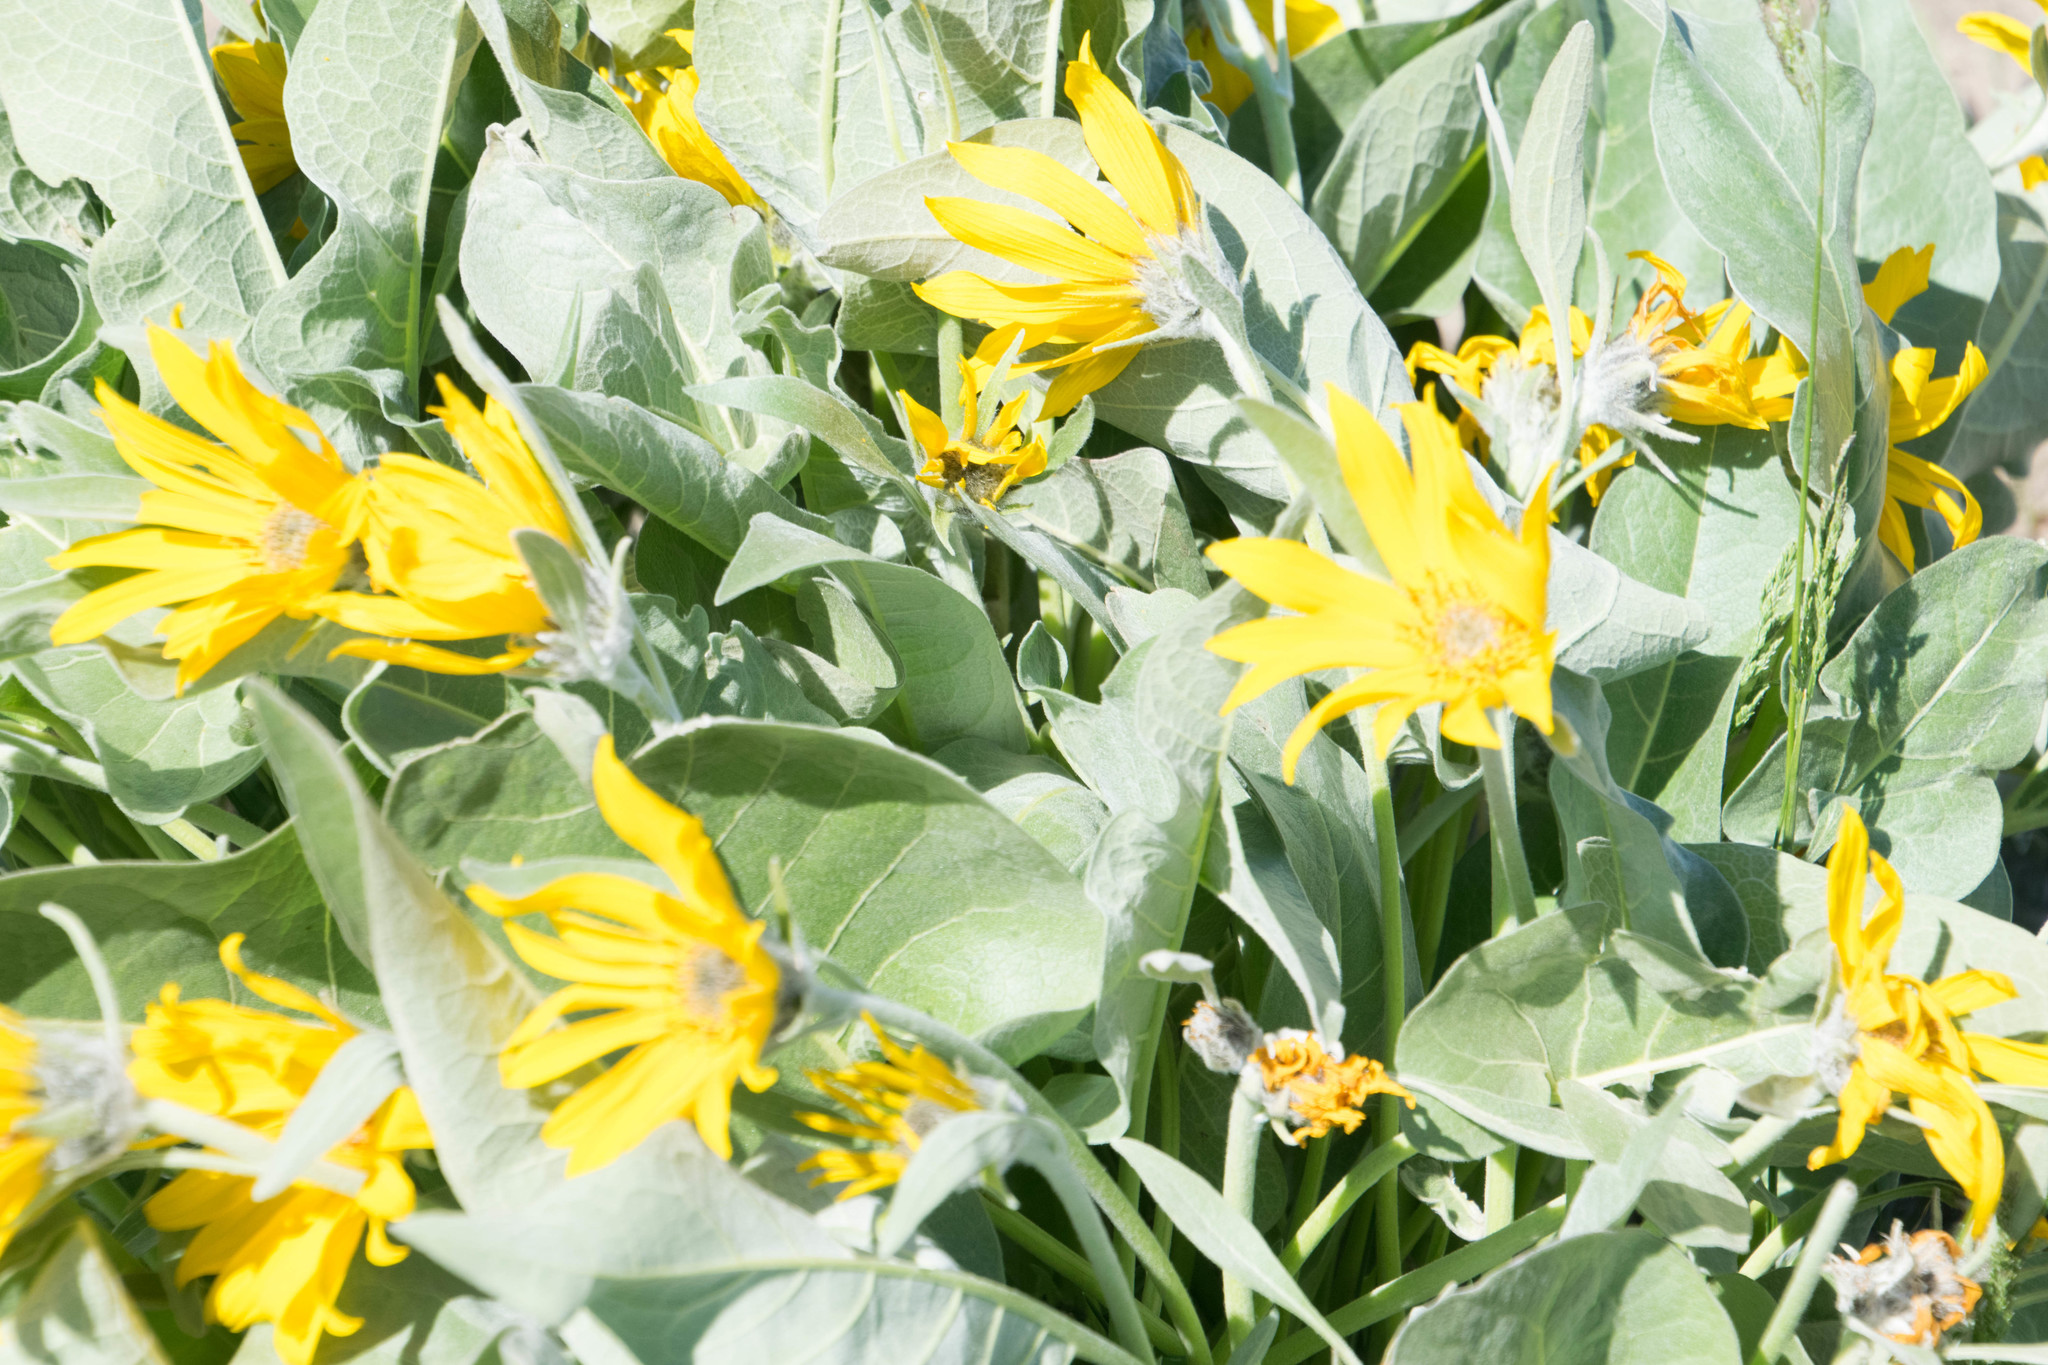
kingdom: Plantae
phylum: Tracheophyta
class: Magnoliopsida
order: Asterales
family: Asteraceae
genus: Wyethia
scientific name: Wyethia sagittata
